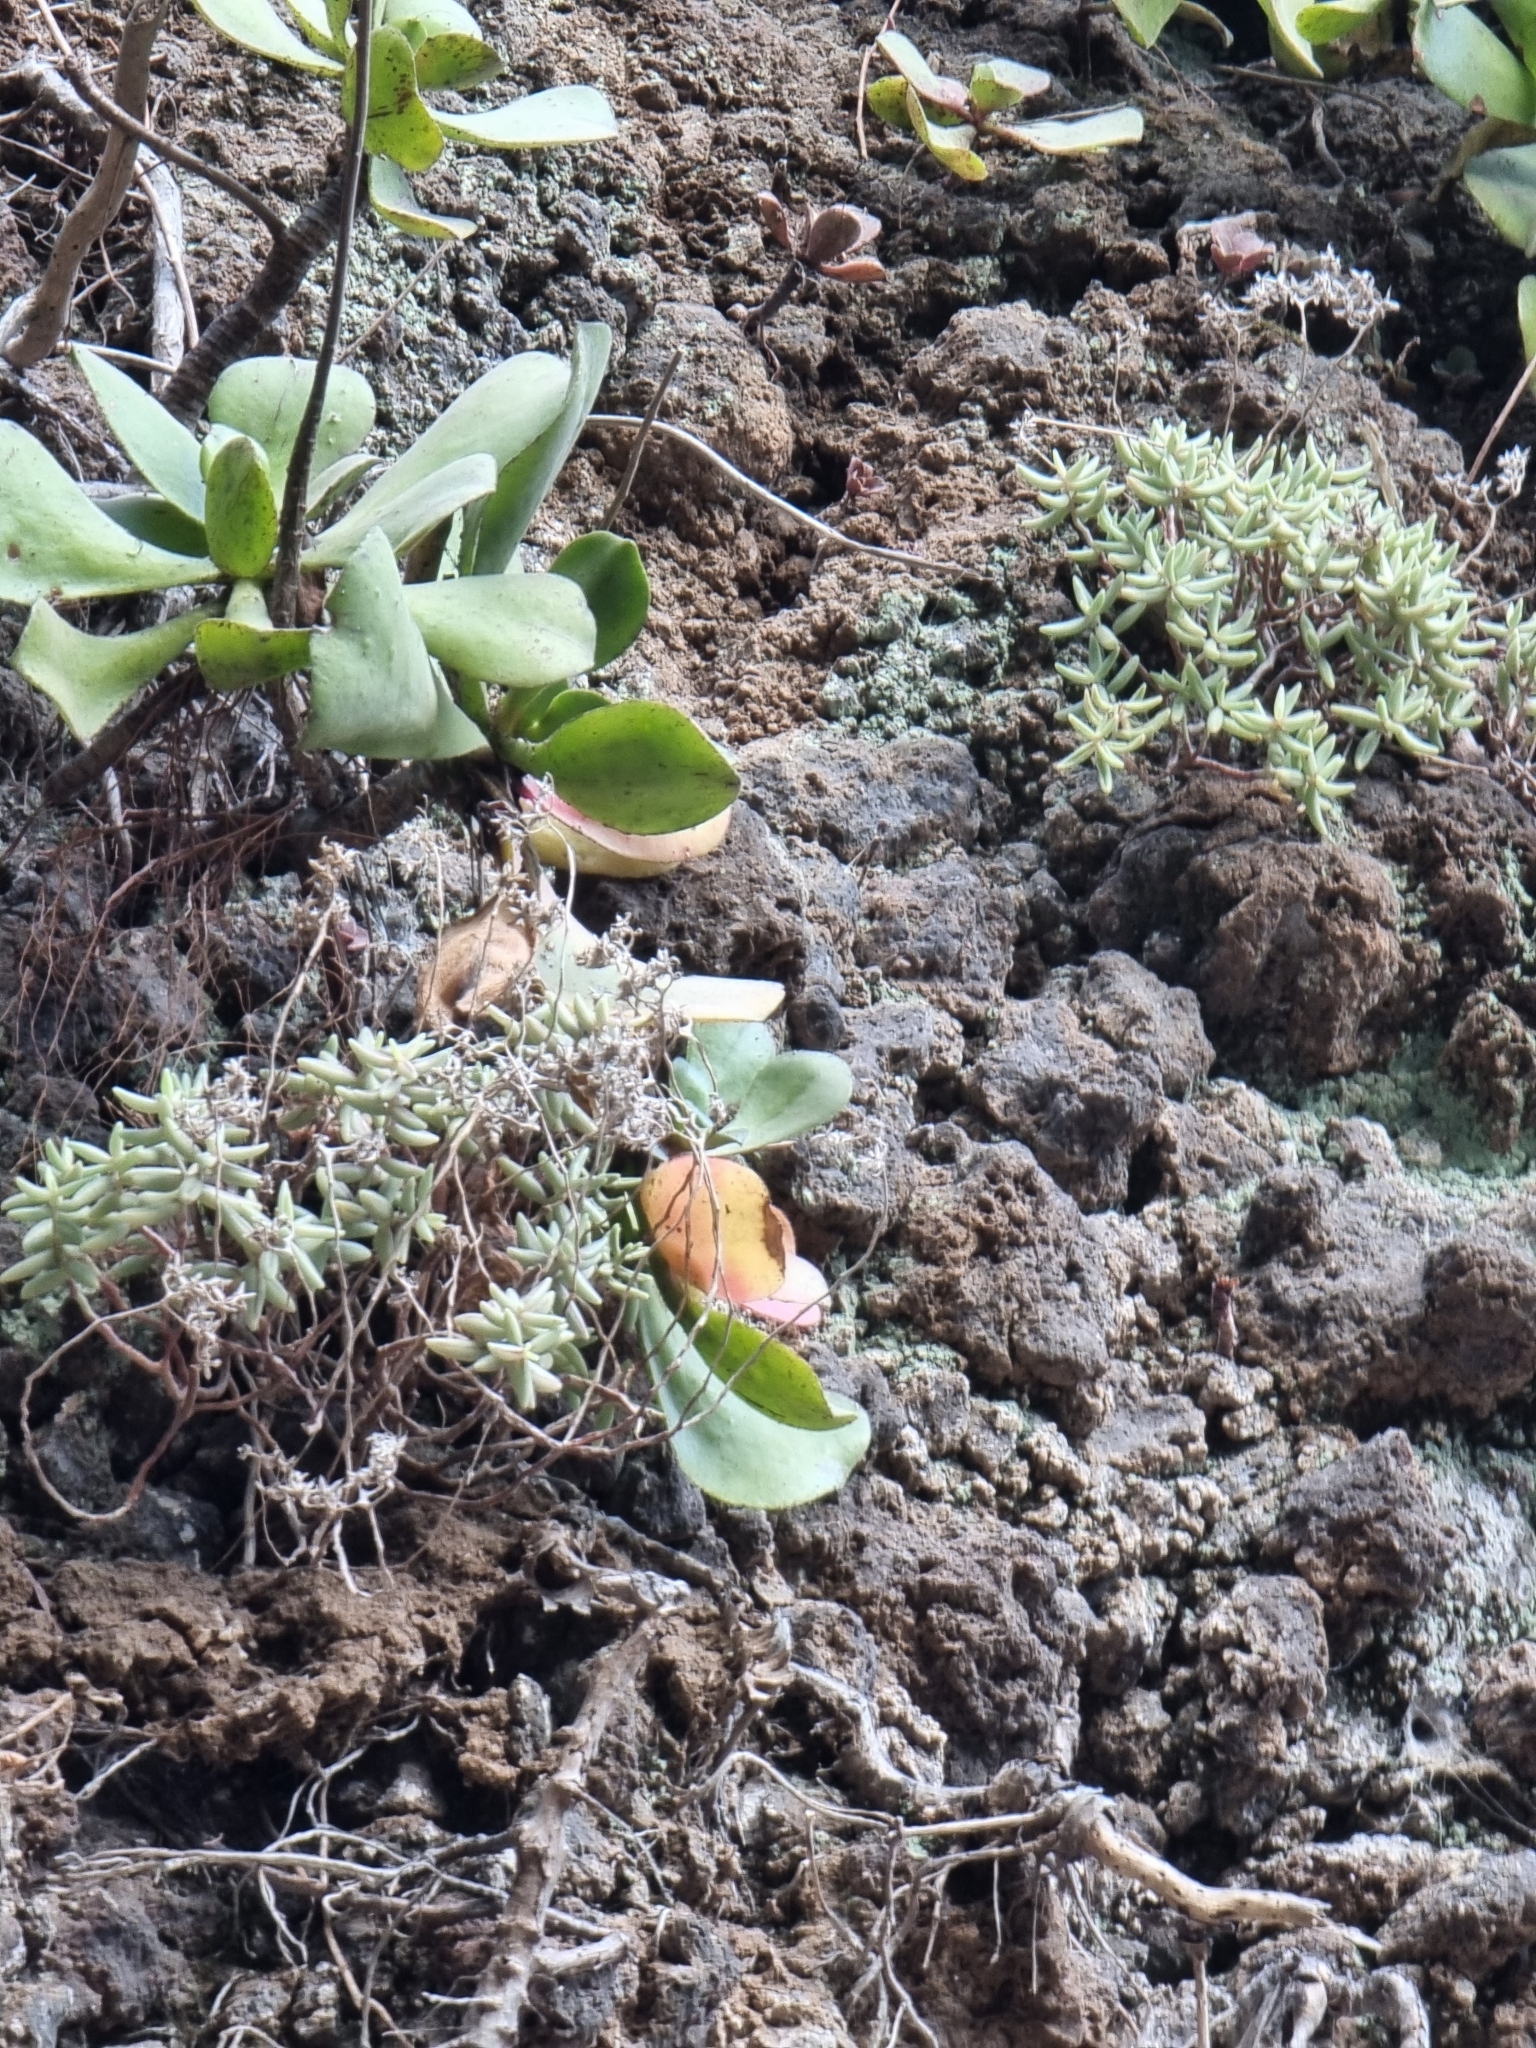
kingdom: Plantae
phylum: Tracheophyta
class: Magnoliopsida
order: Saxifragales
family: Crassulaceae
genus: Sedum
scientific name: Sedum fusiforme
